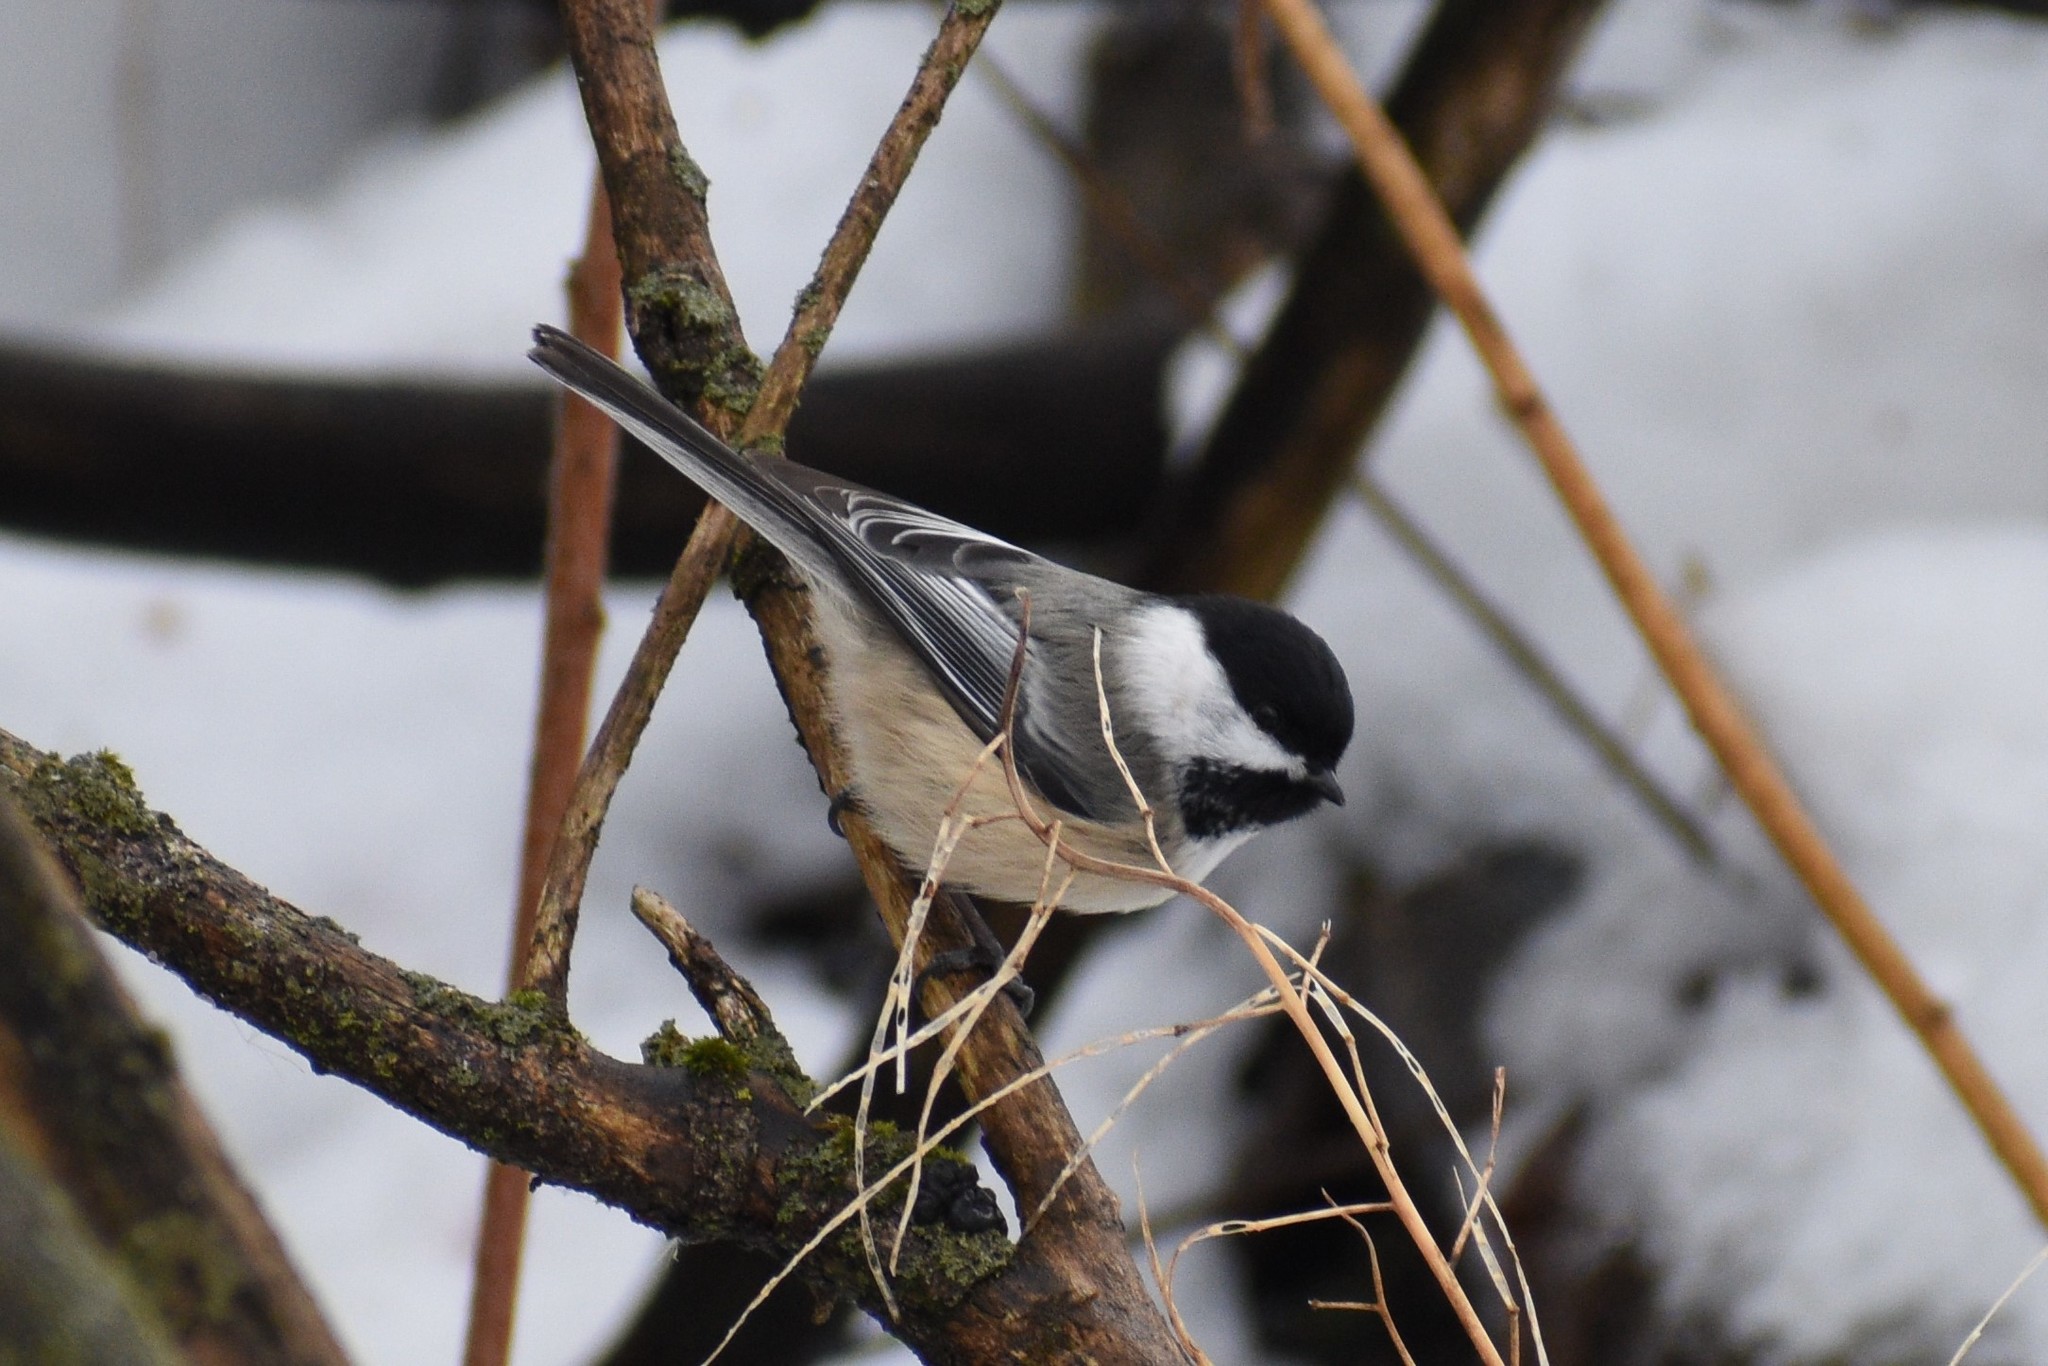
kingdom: Animalia
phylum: Chordata
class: Aves
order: Passeriformes
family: Paridae
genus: Poecile
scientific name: Poecile atricapillus
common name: Black-capped chickadee
